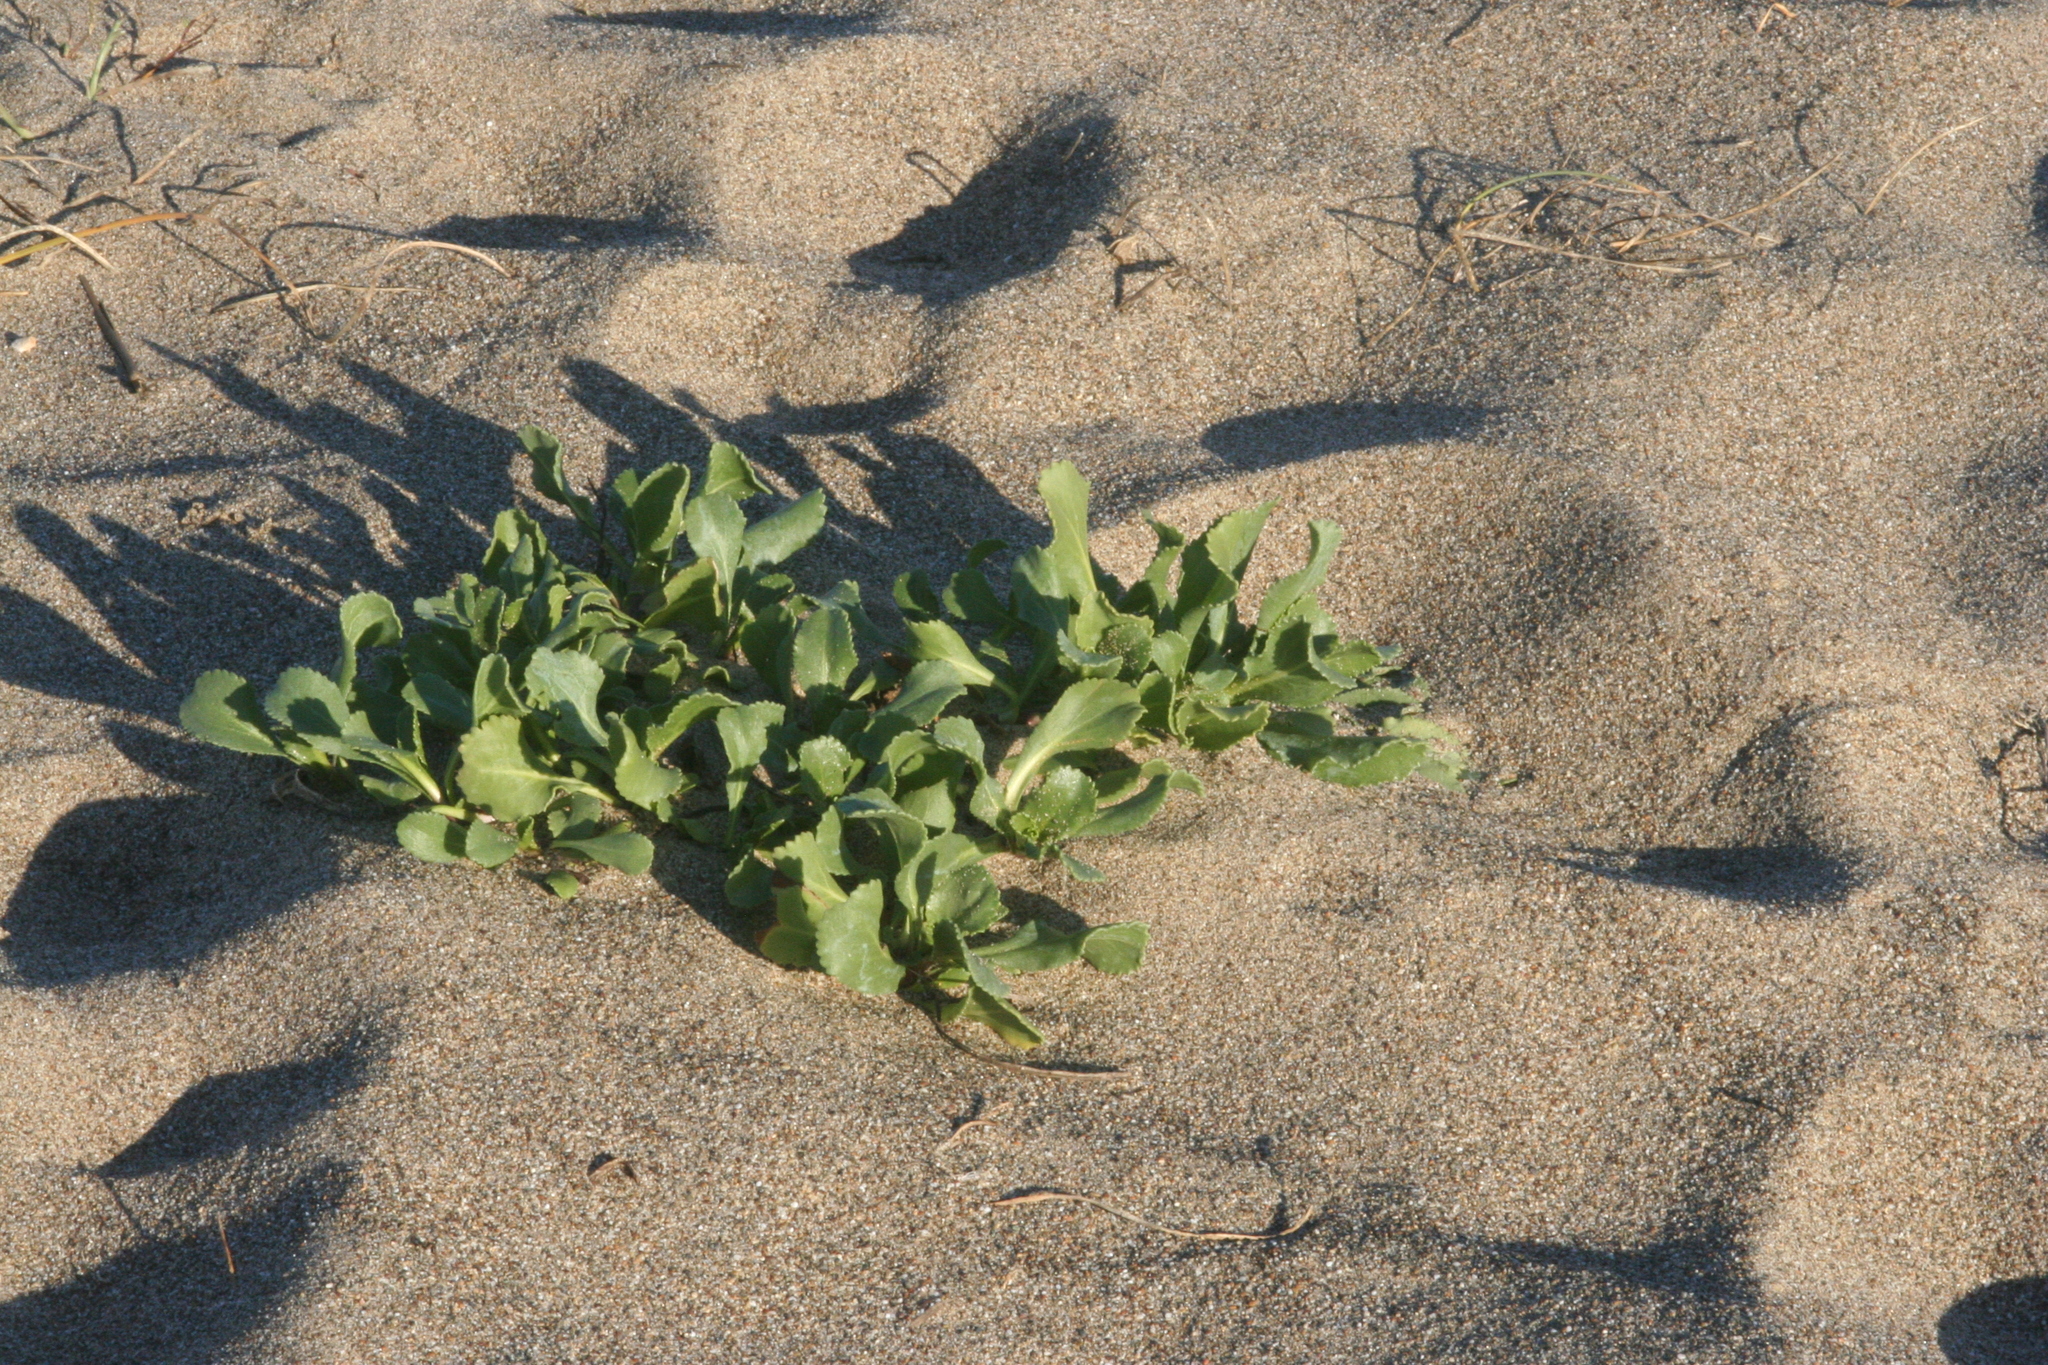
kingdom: Plantae
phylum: Tracheophyta
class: Magnoliopsida
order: Asterales
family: Asteraceae
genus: Grindelia
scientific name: Grindelia hirsutula
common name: Hairy gumweed
